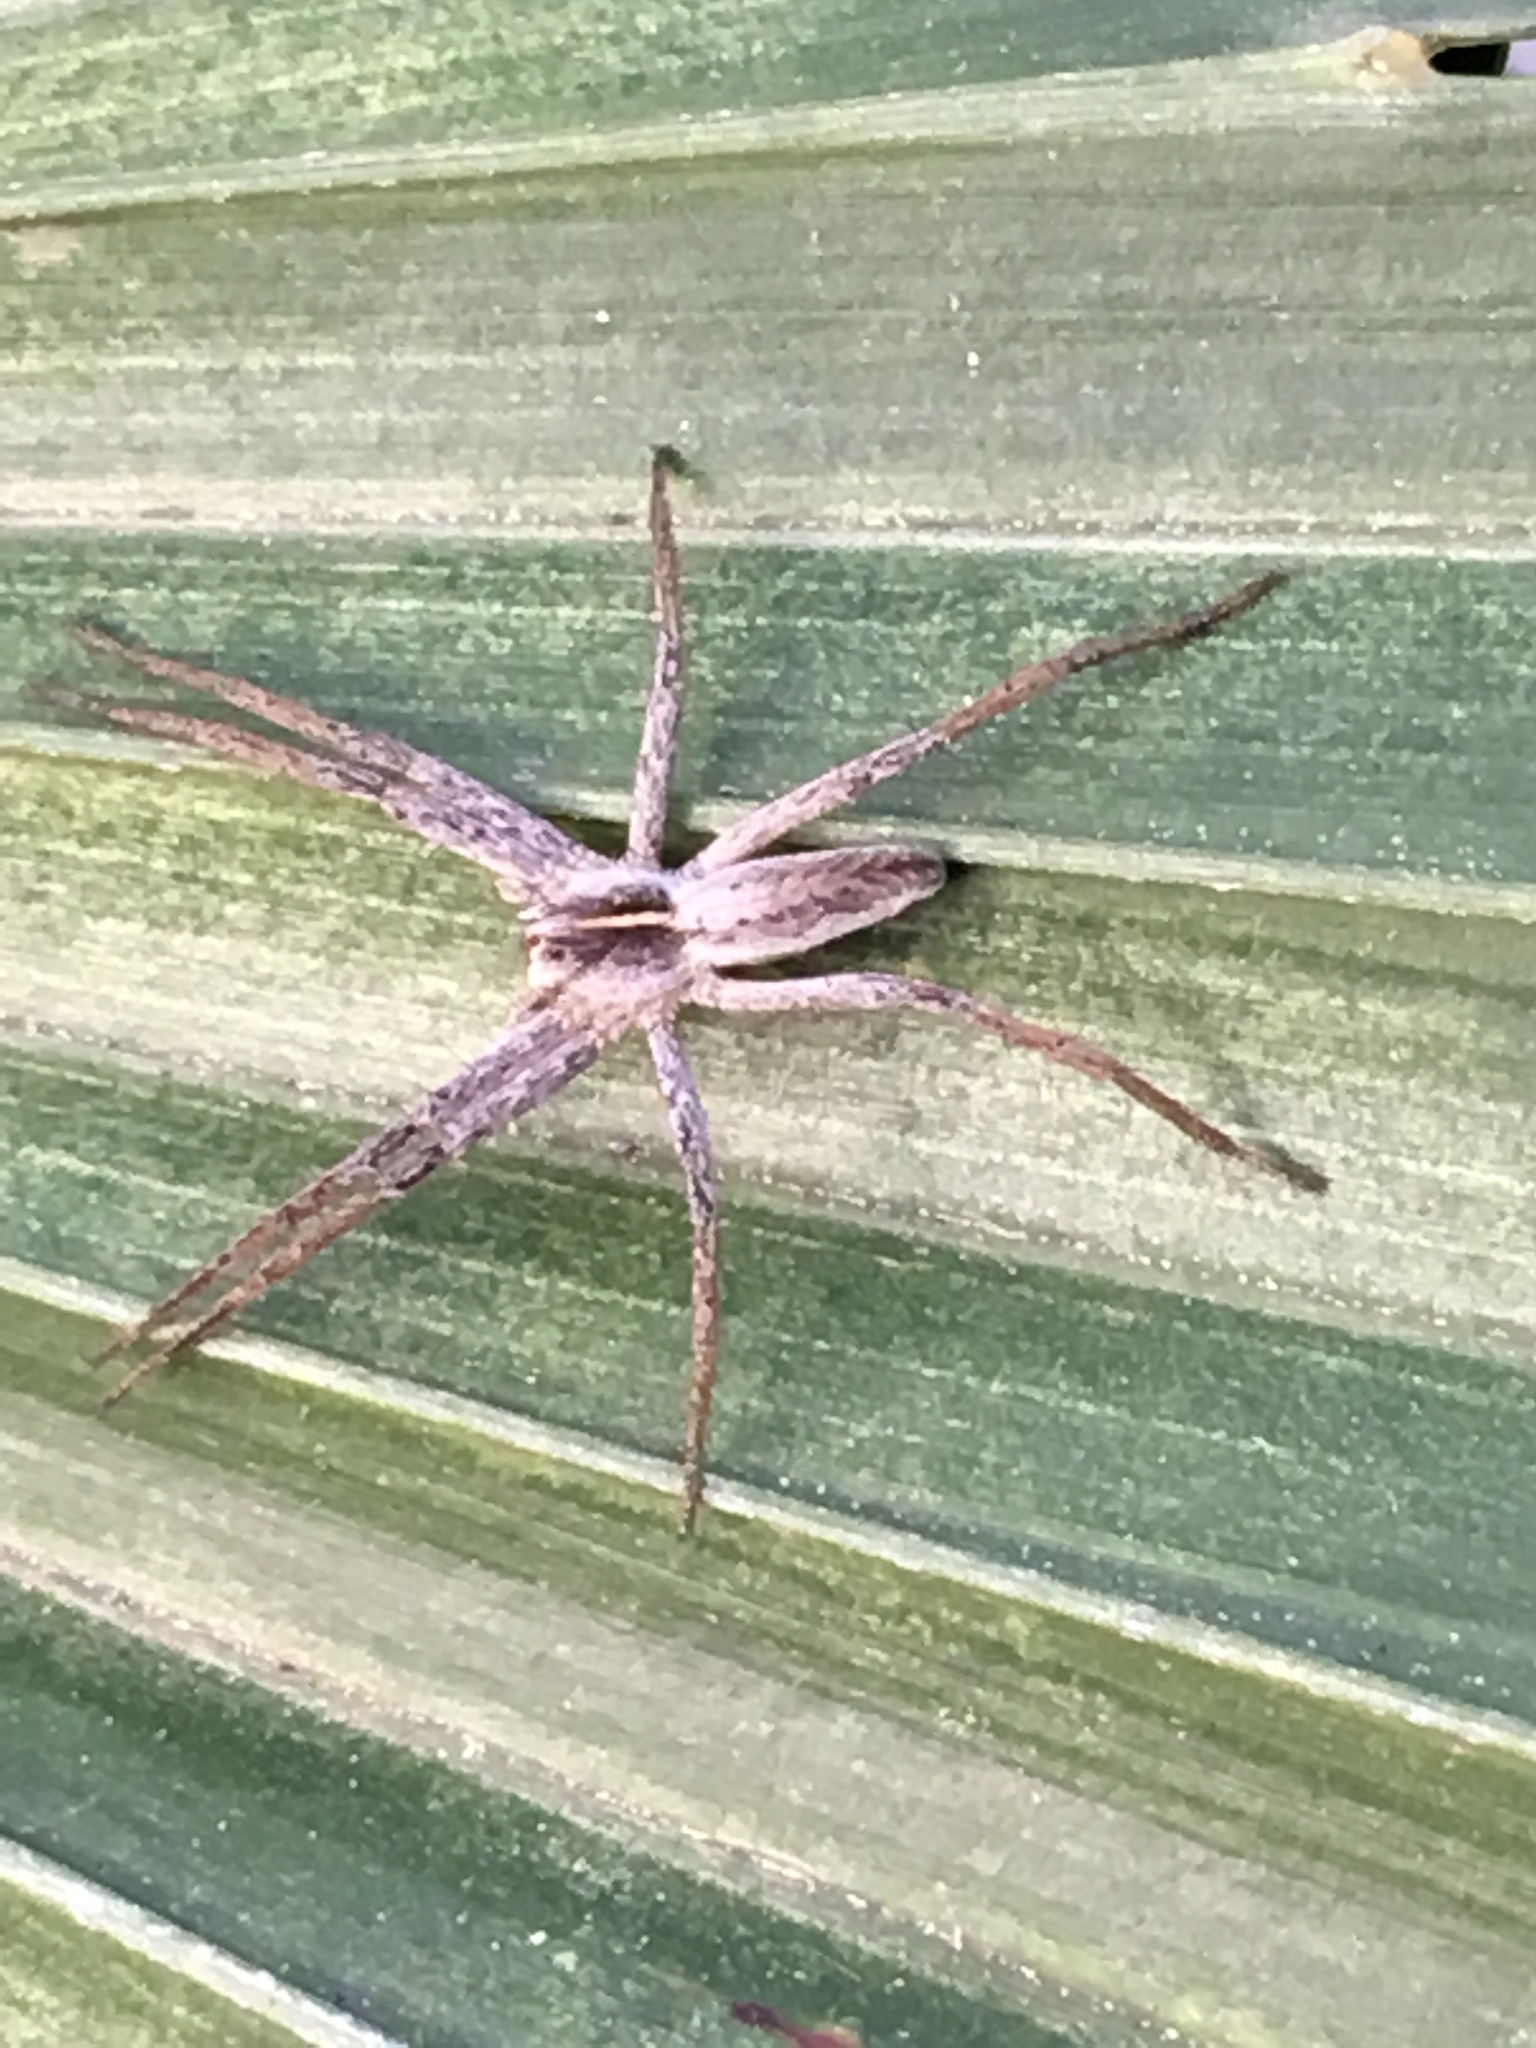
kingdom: Animalia
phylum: Arthropoda
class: Arachnida
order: Araneae
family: Pisauridae
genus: Pisaura
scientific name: Pisaura mirabilis
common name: Tent spider
